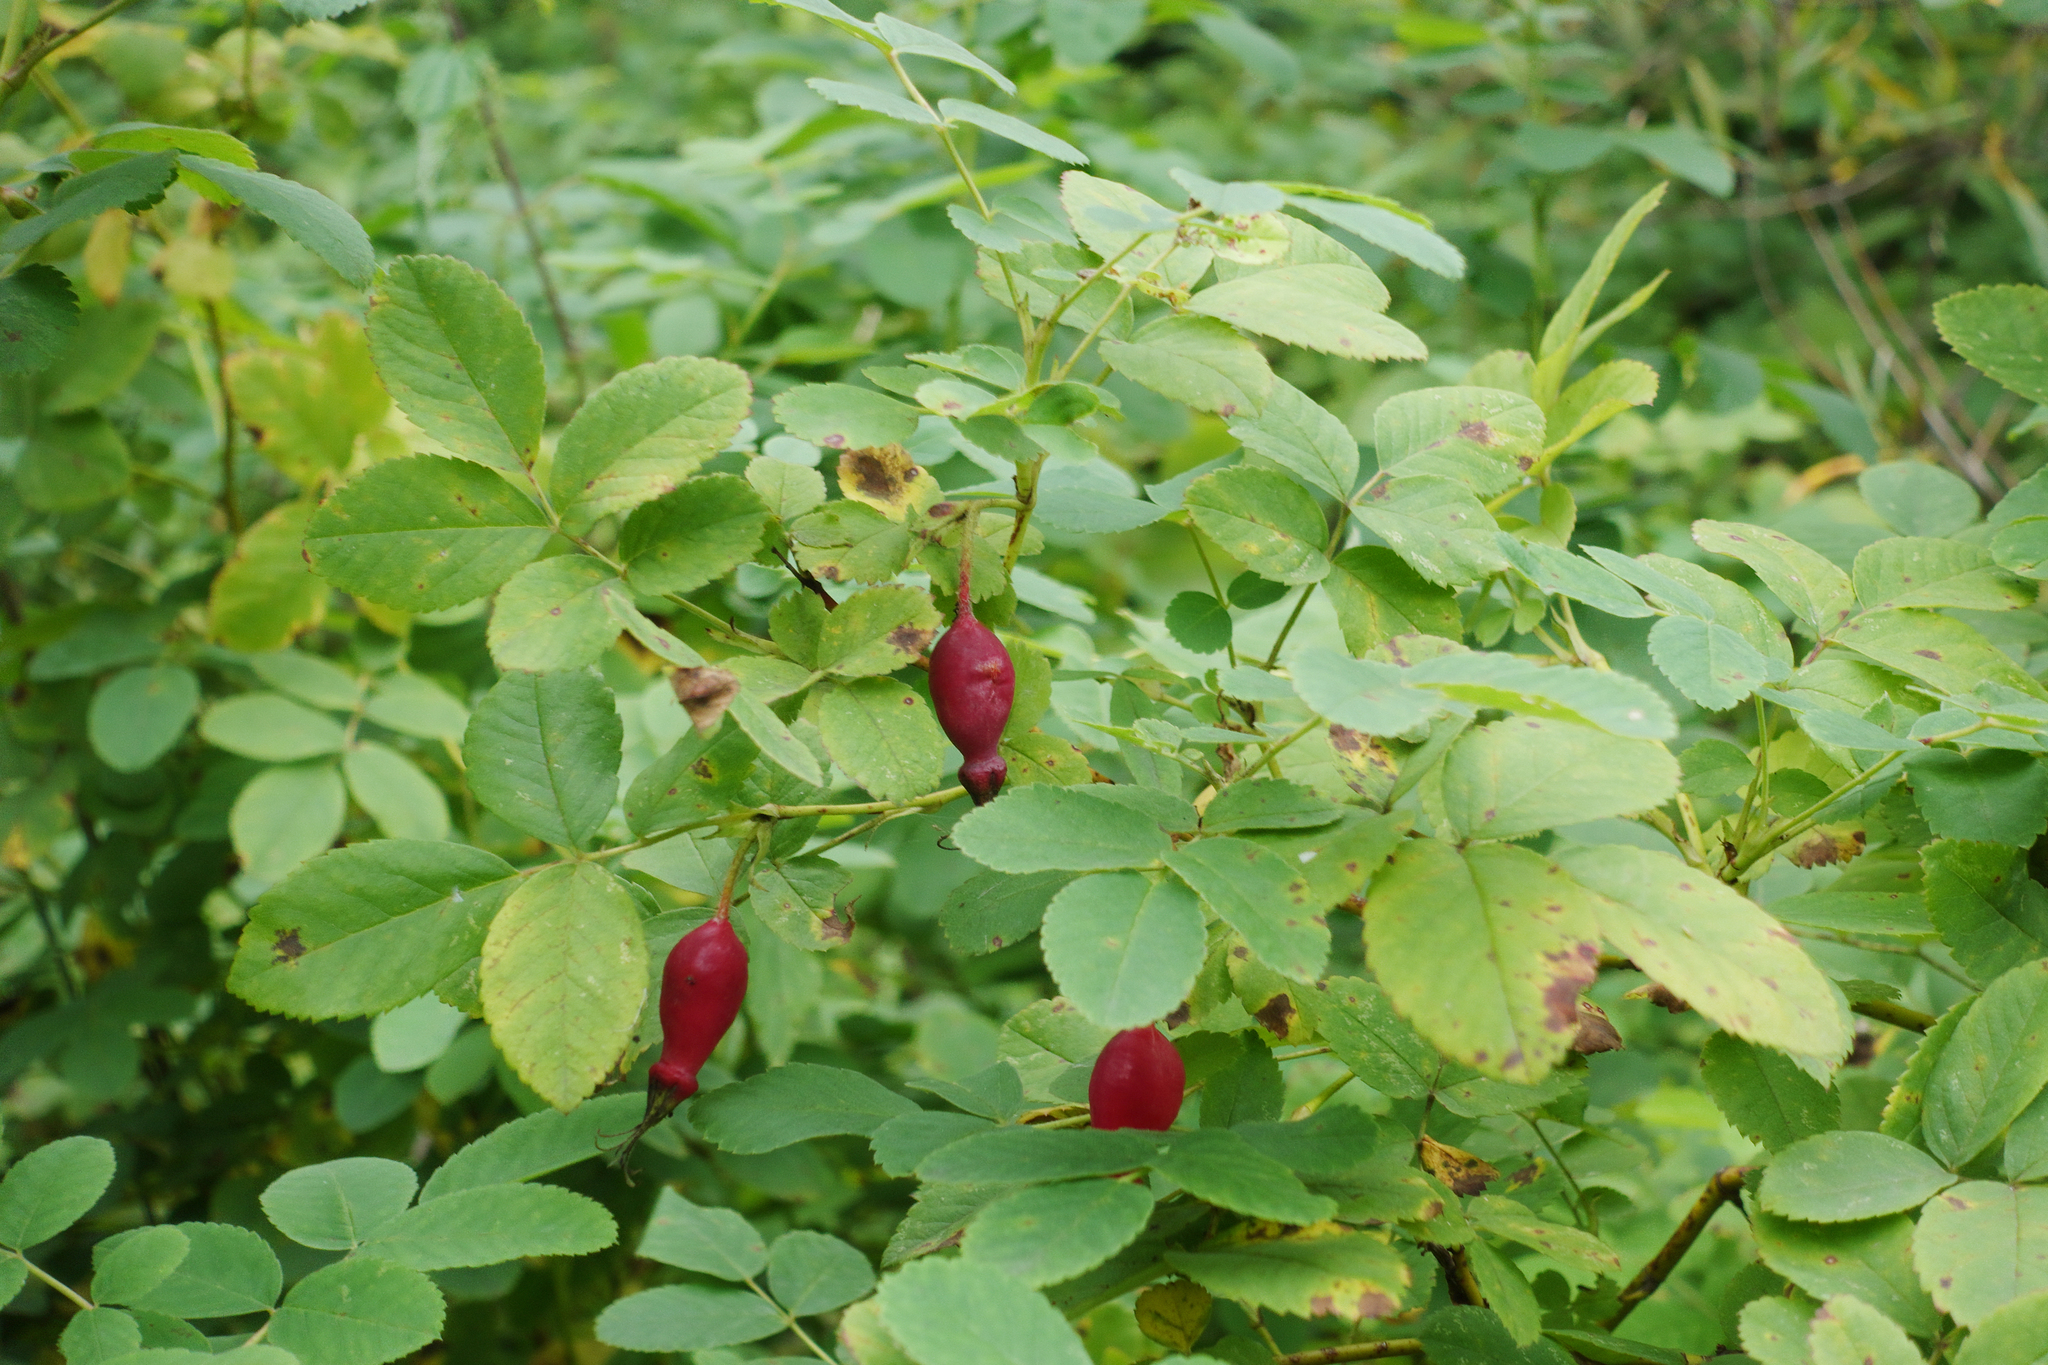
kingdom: Plantae
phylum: Tracheophyta
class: Magnoliopsida
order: Rosales
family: Rosaceae
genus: Rosa
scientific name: Rosa majalis
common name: Cinnamon rose
